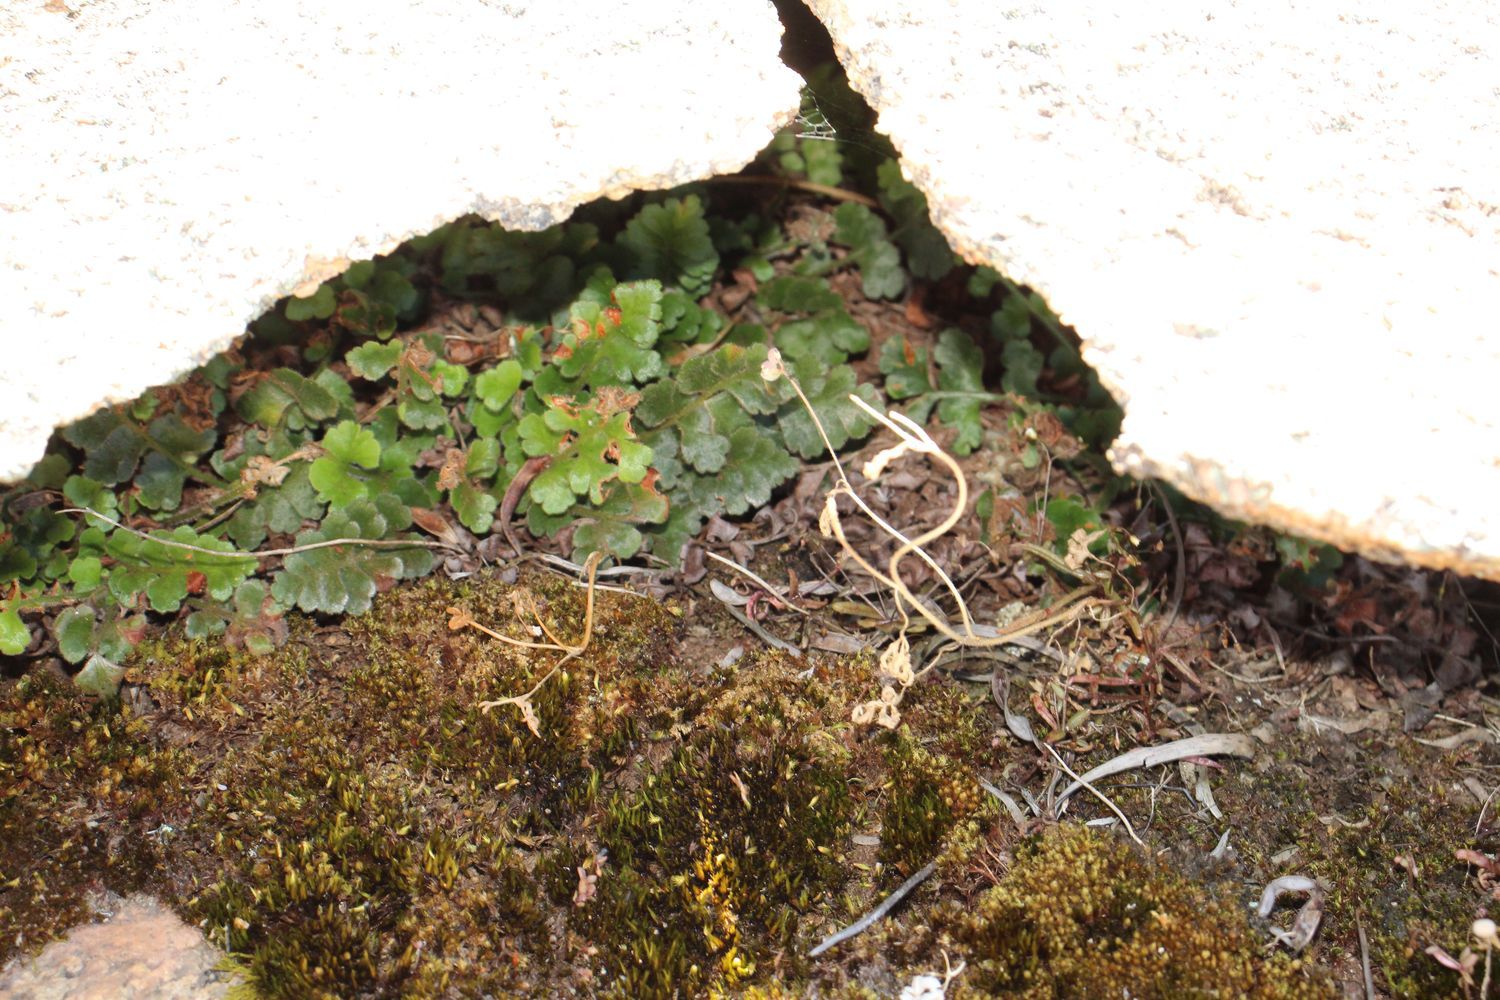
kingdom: Plantae
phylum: Tracheophyta
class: Polypodiopsida
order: Polypodiales
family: Aspleniaceae
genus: Asplenium
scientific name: Asplenium subglandulosum
